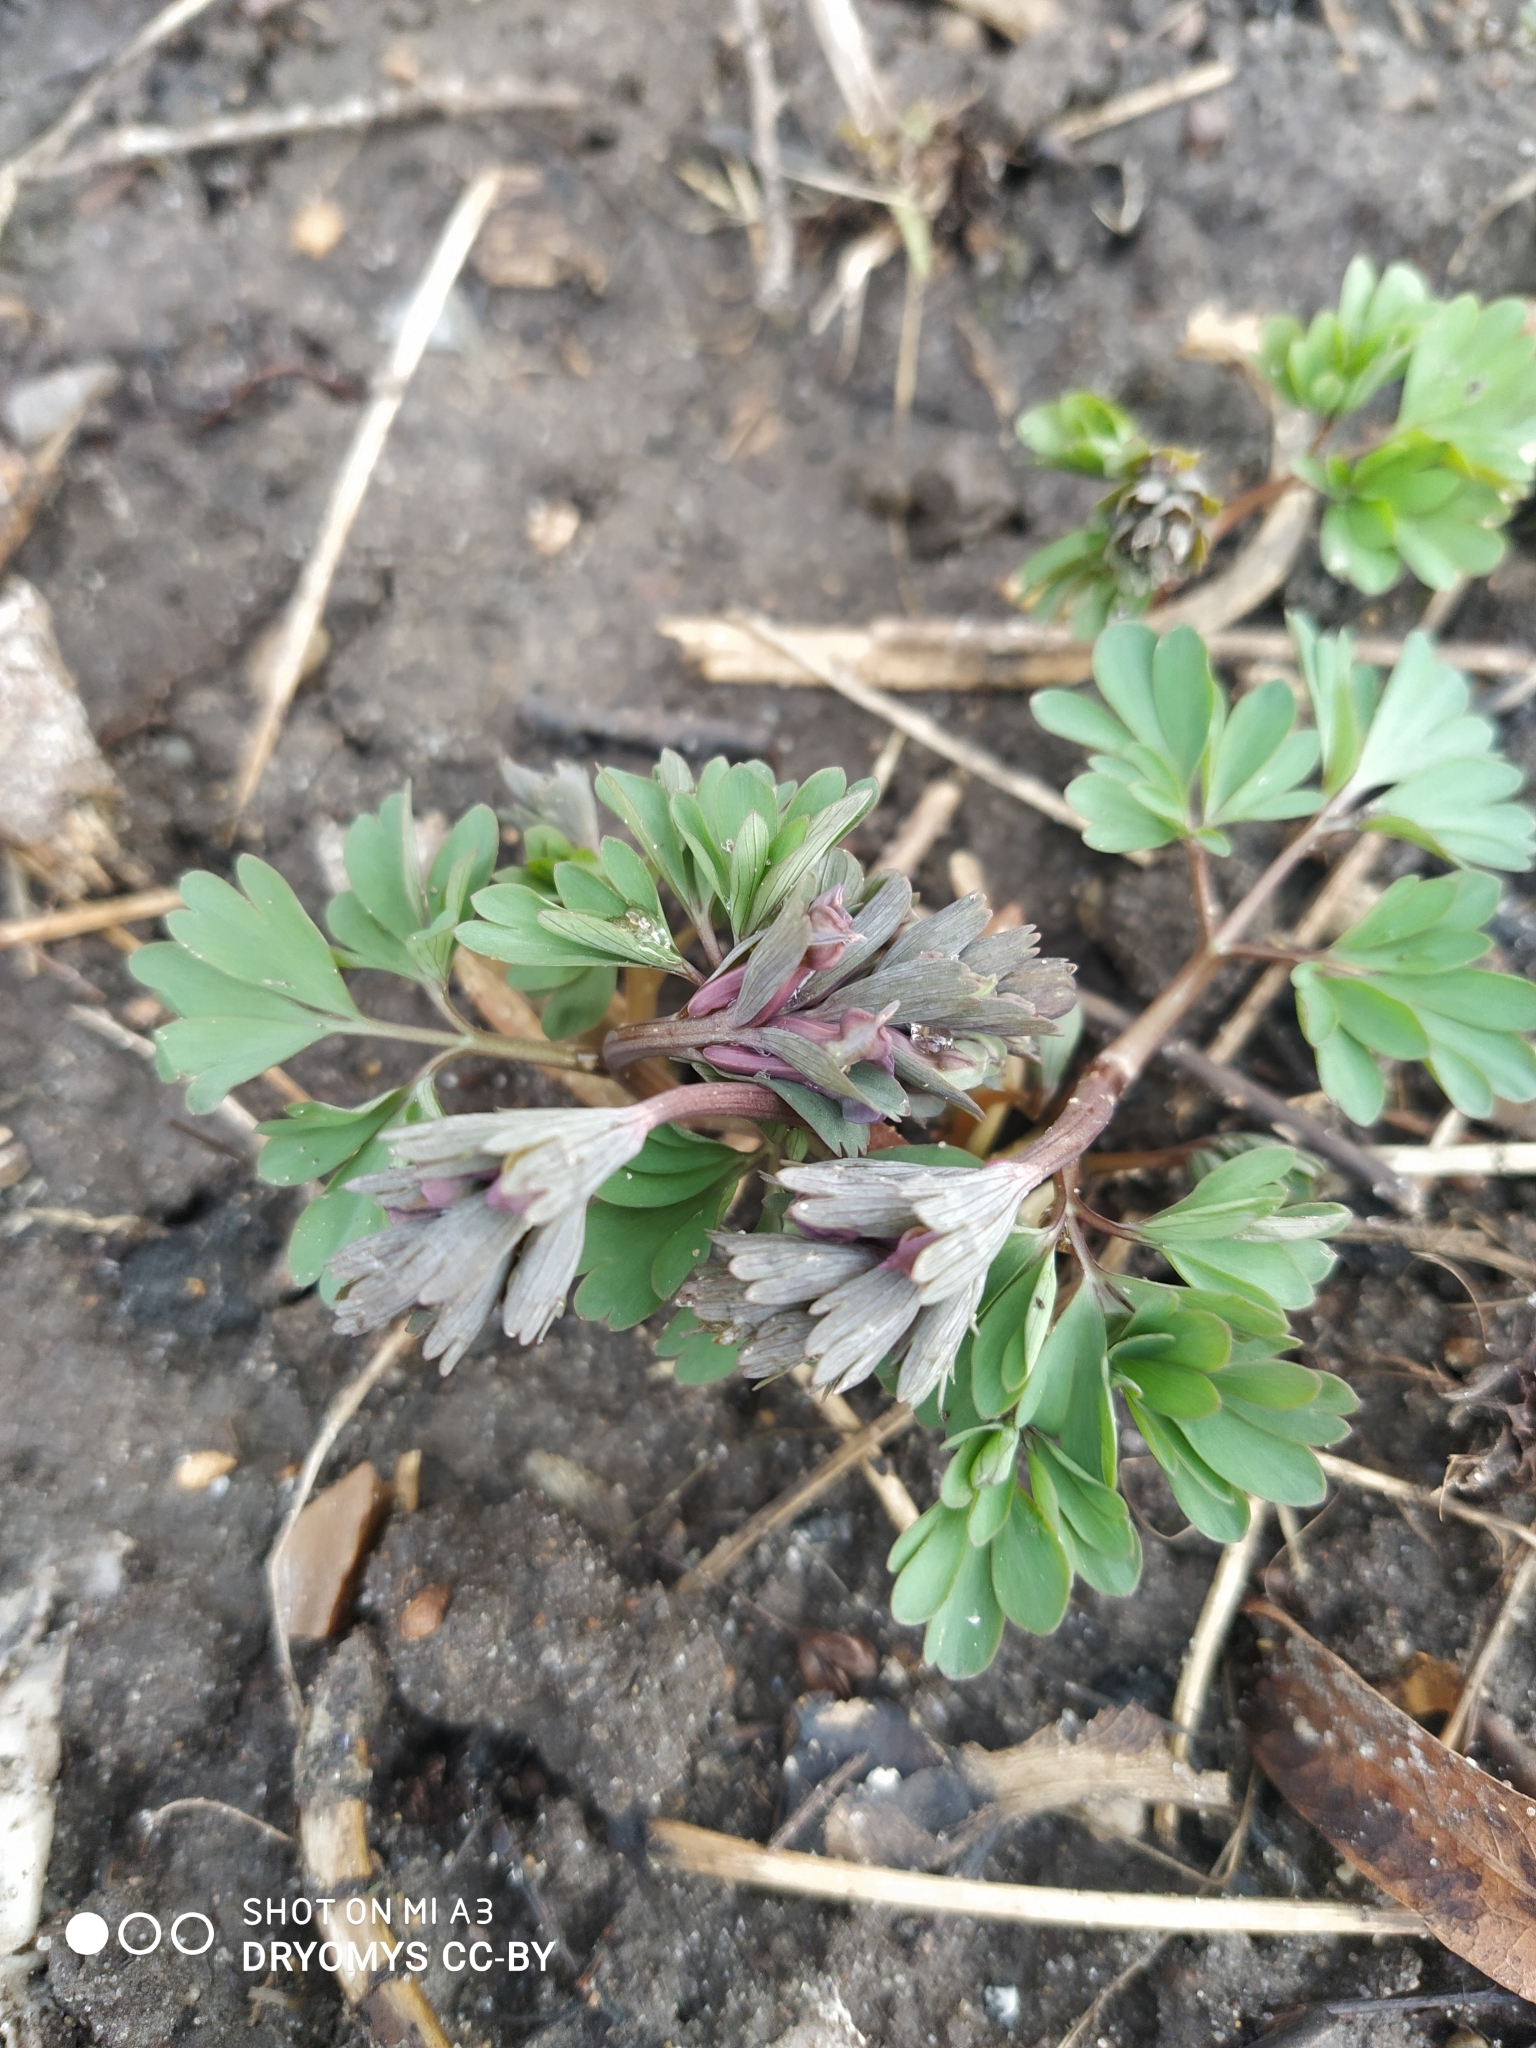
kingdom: Plantae
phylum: Tracheophyta
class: Magnoliopsida
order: Ranunculales
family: Papaveraceae
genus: Corydalis
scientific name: Corydalis solida
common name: Bird-in-a-bush
